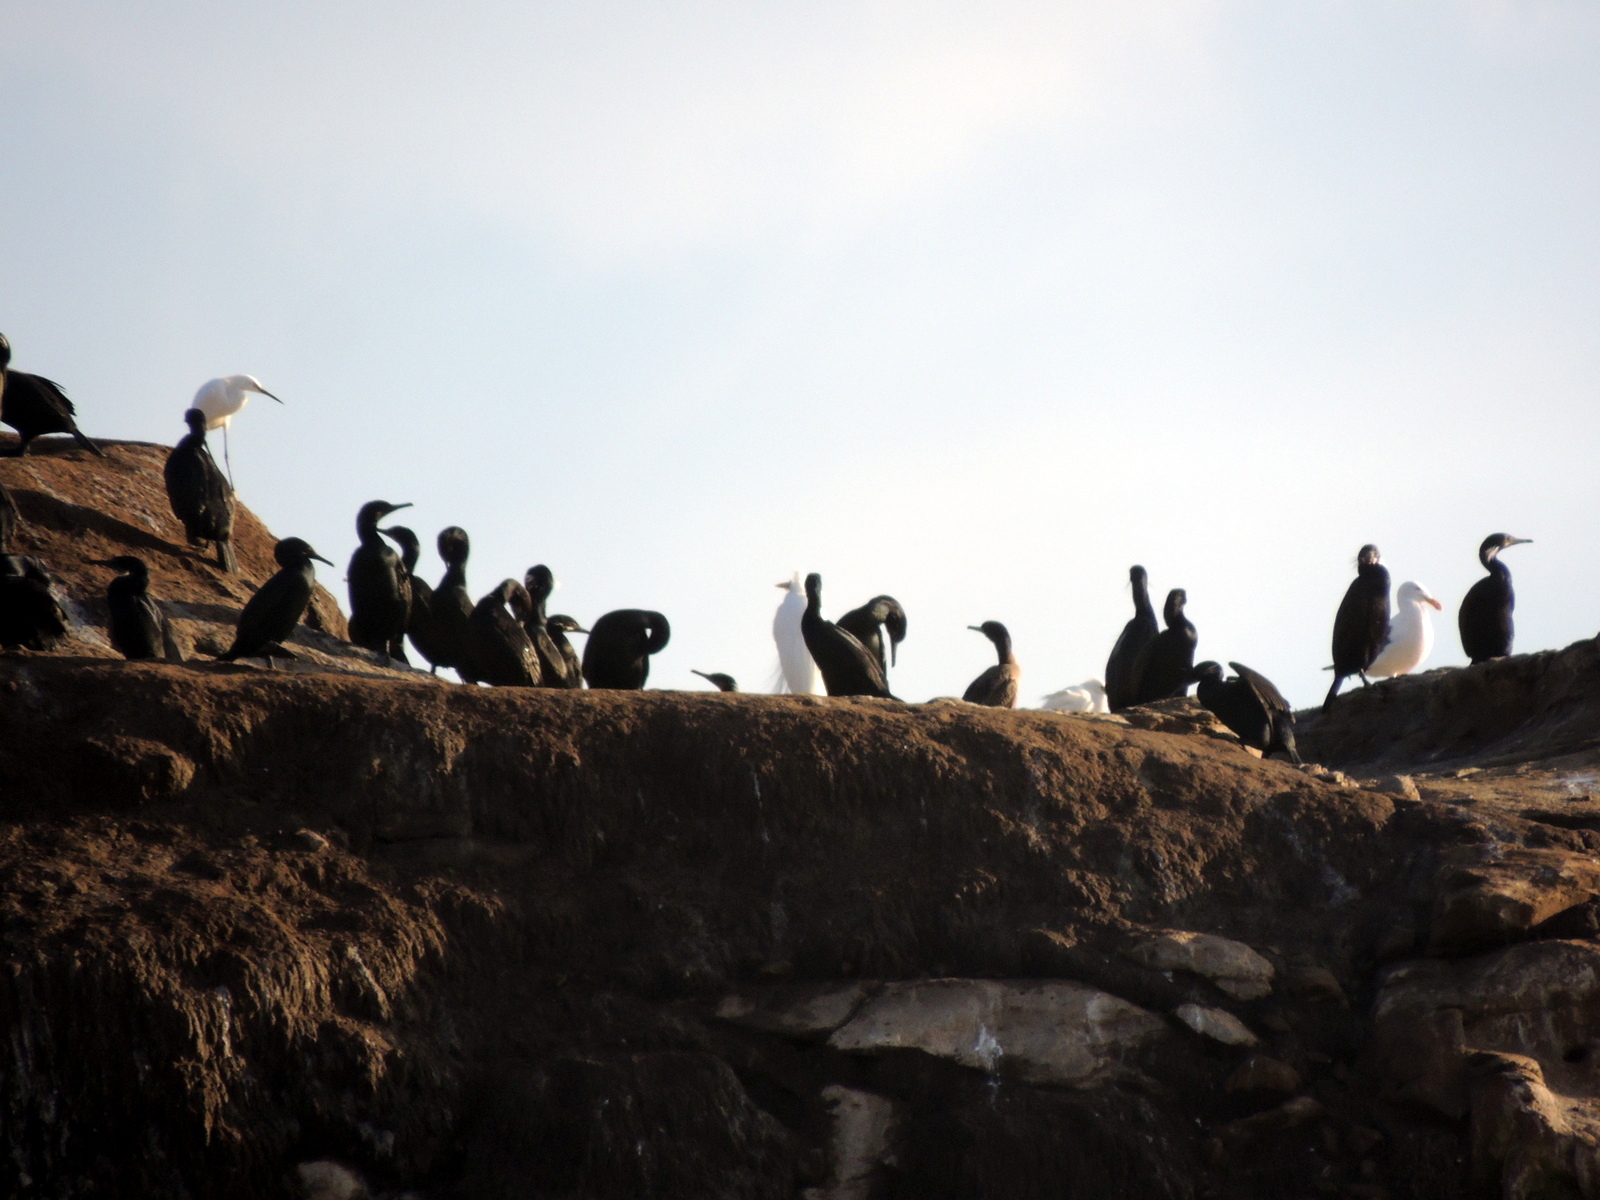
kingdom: Animalia
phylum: Chordata
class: Aves
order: Pelecaniformes
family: Ardeidae
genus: Egretta
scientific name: Egretta thula
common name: Snowy egret
